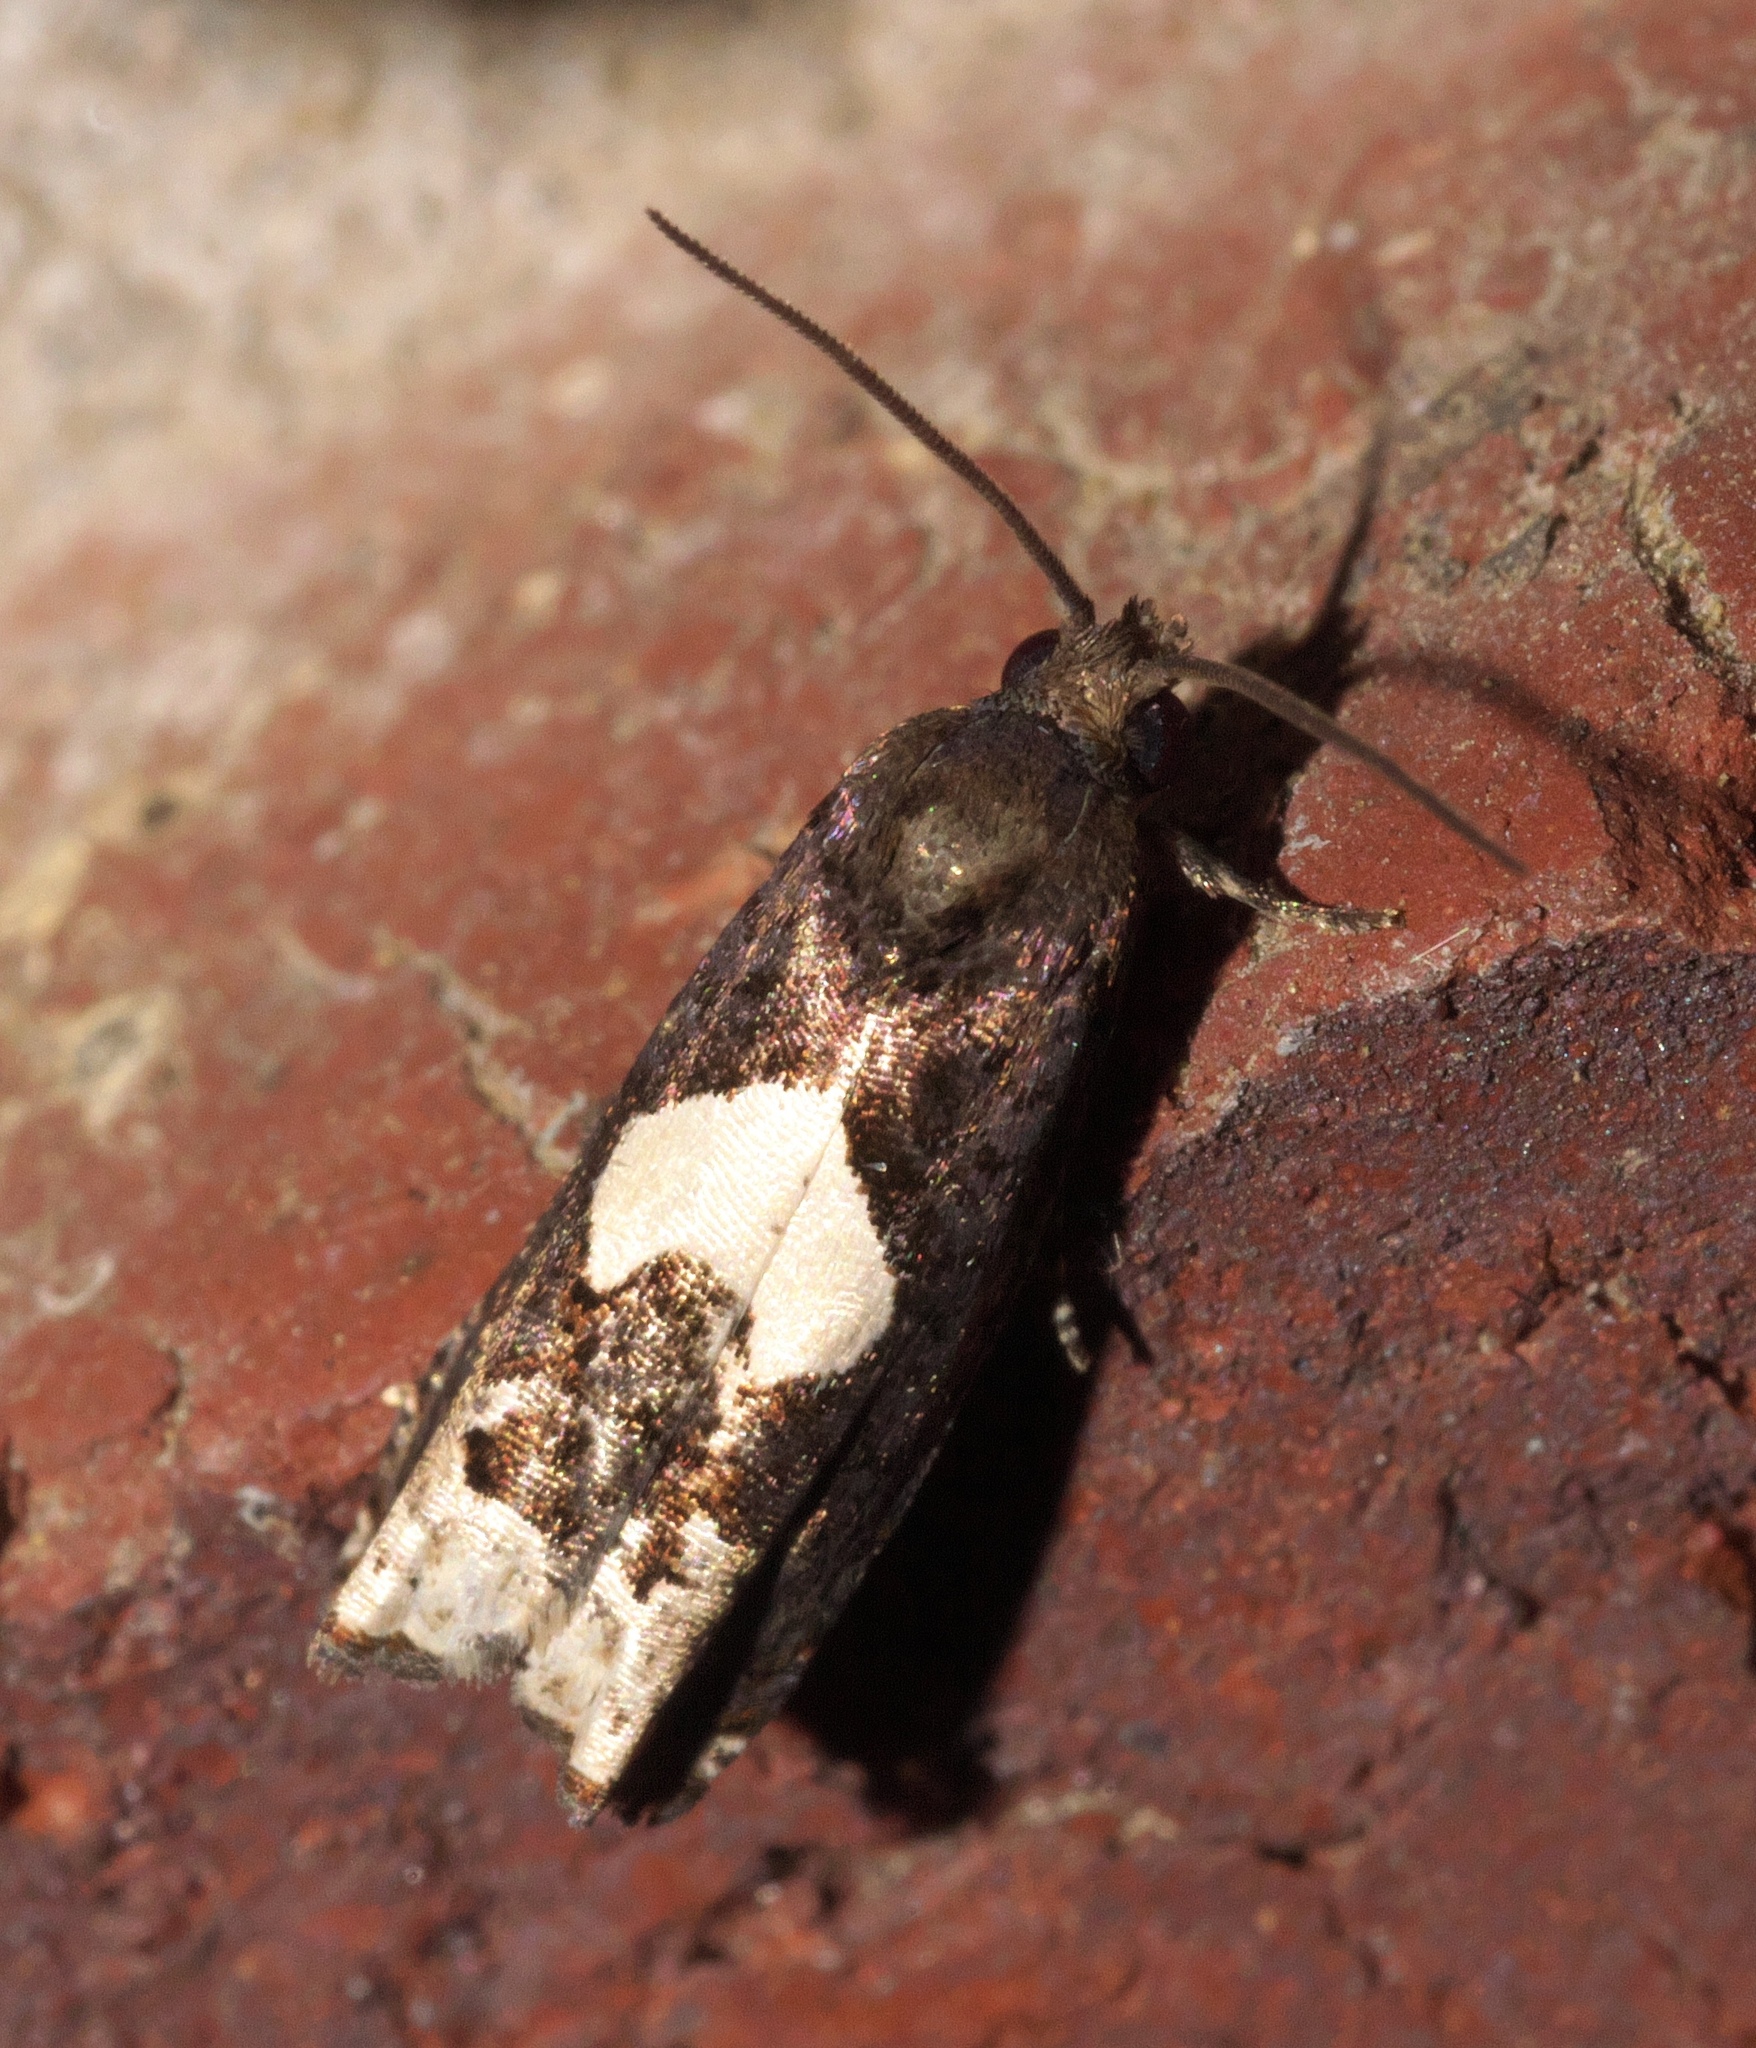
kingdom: Animalia
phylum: Arthropoda
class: Insecta
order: Lepidoptera
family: Tortricidae
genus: Epiblema
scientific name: Epiblema otiosana
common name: Bidens borer moth
